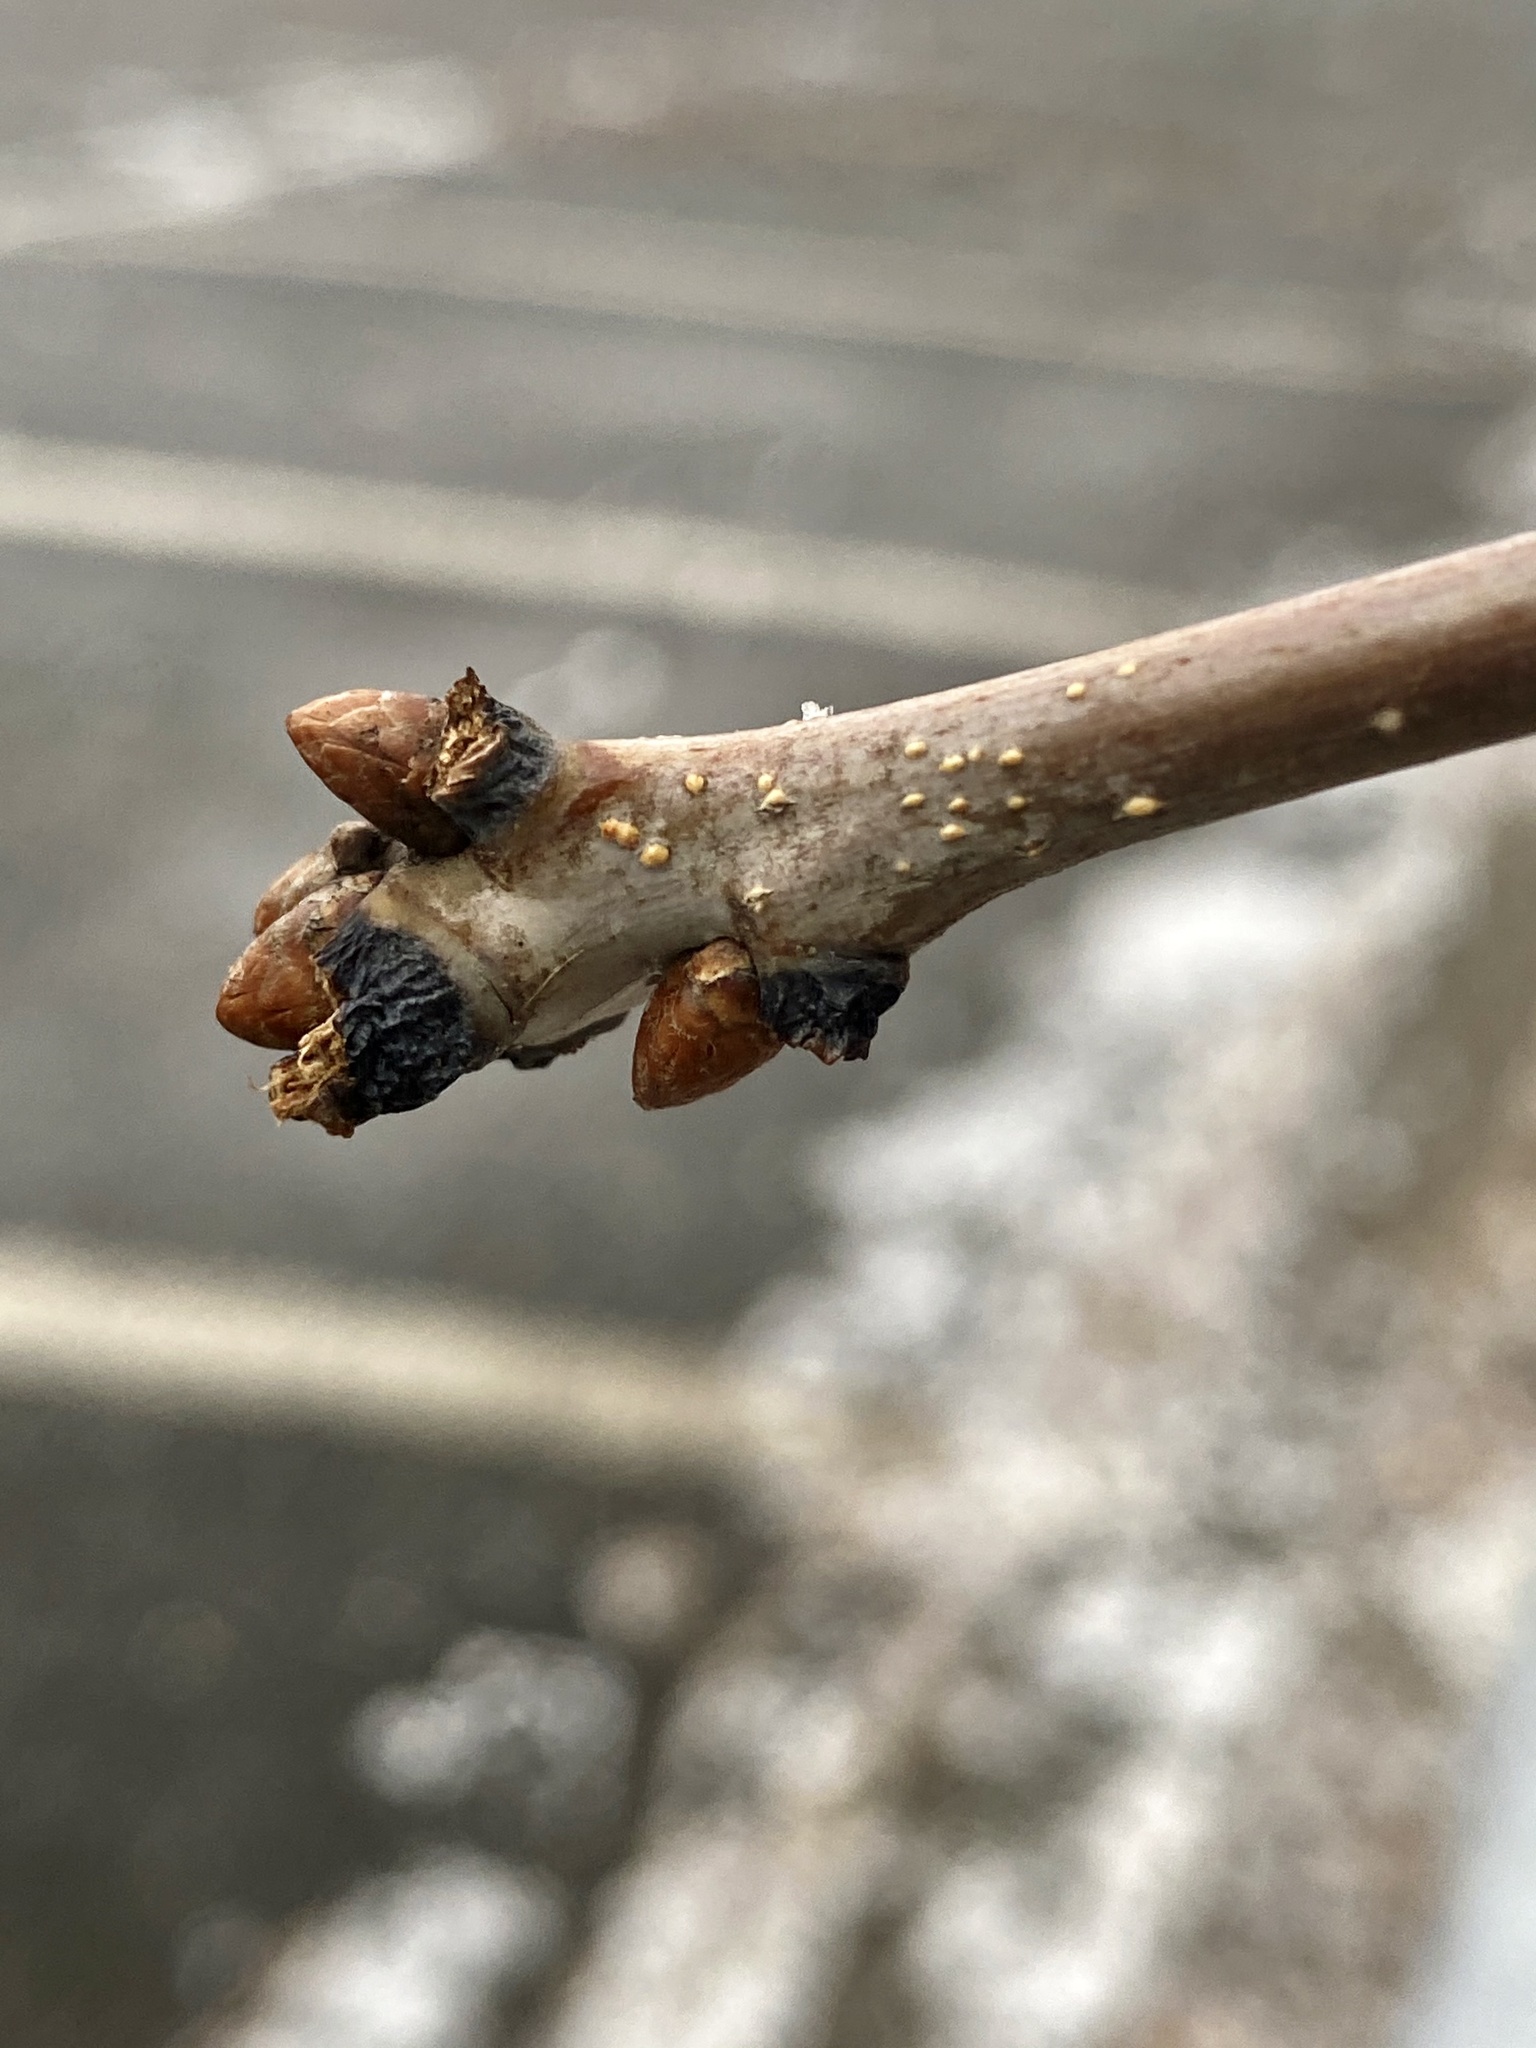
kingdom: Plantae
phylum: Tracheophyta
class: Magnoliopsida
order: Fagales
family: Fagaceae
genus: Quercus
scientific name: Quercus alba
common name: White oak
